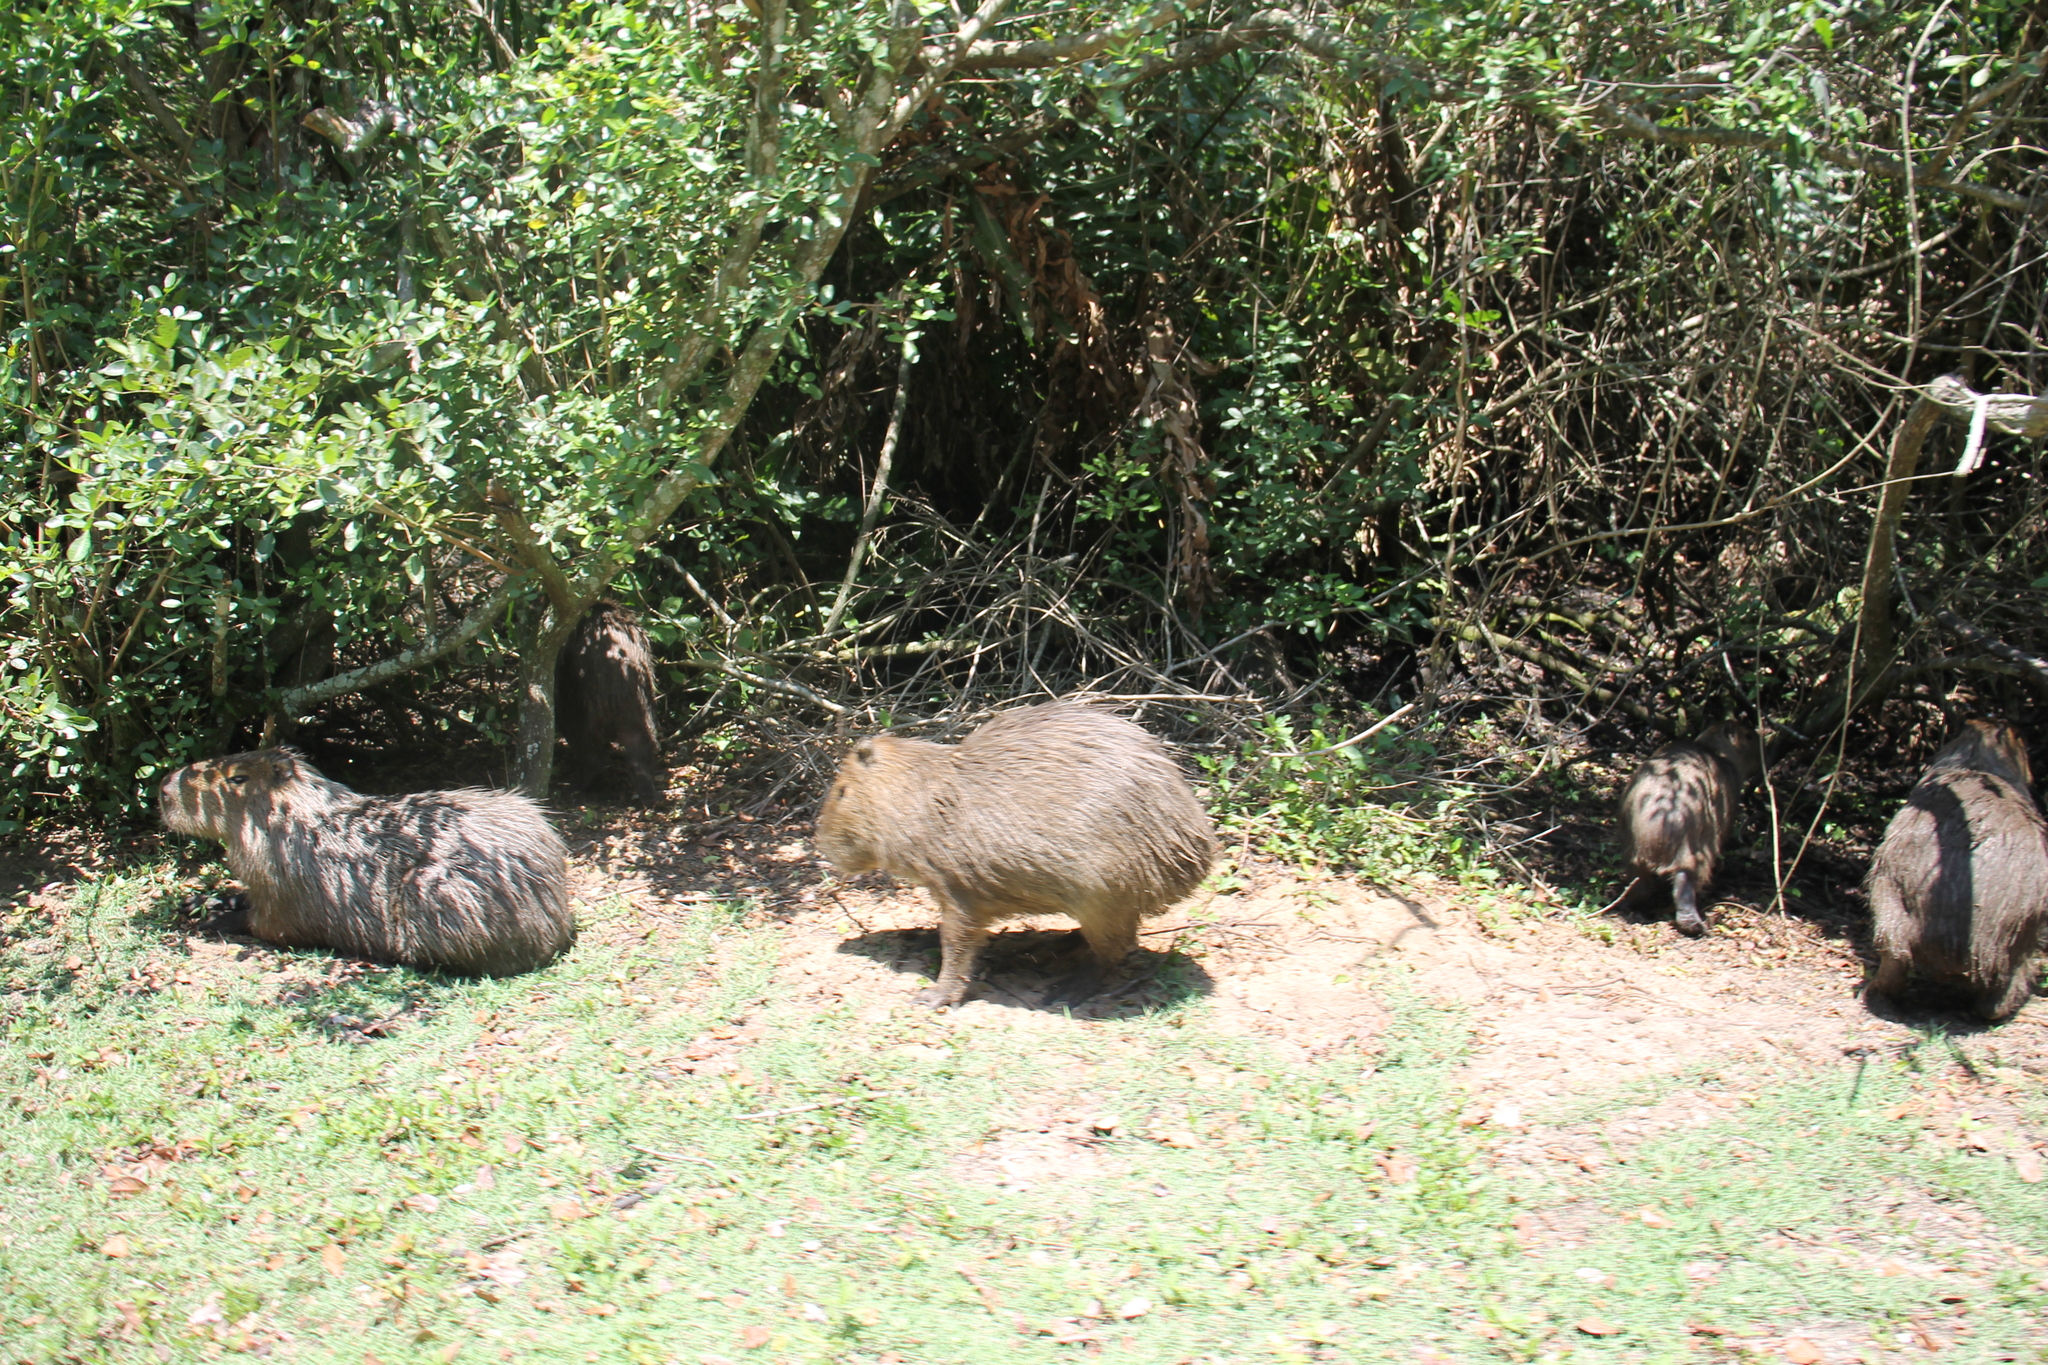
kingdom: Animalia
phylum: Chordata
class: Mammalia
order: Rodentia
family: Caviidae
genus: Hydrochoerus
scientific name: Hydrochoerus hydrochaeris
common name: Capybara
